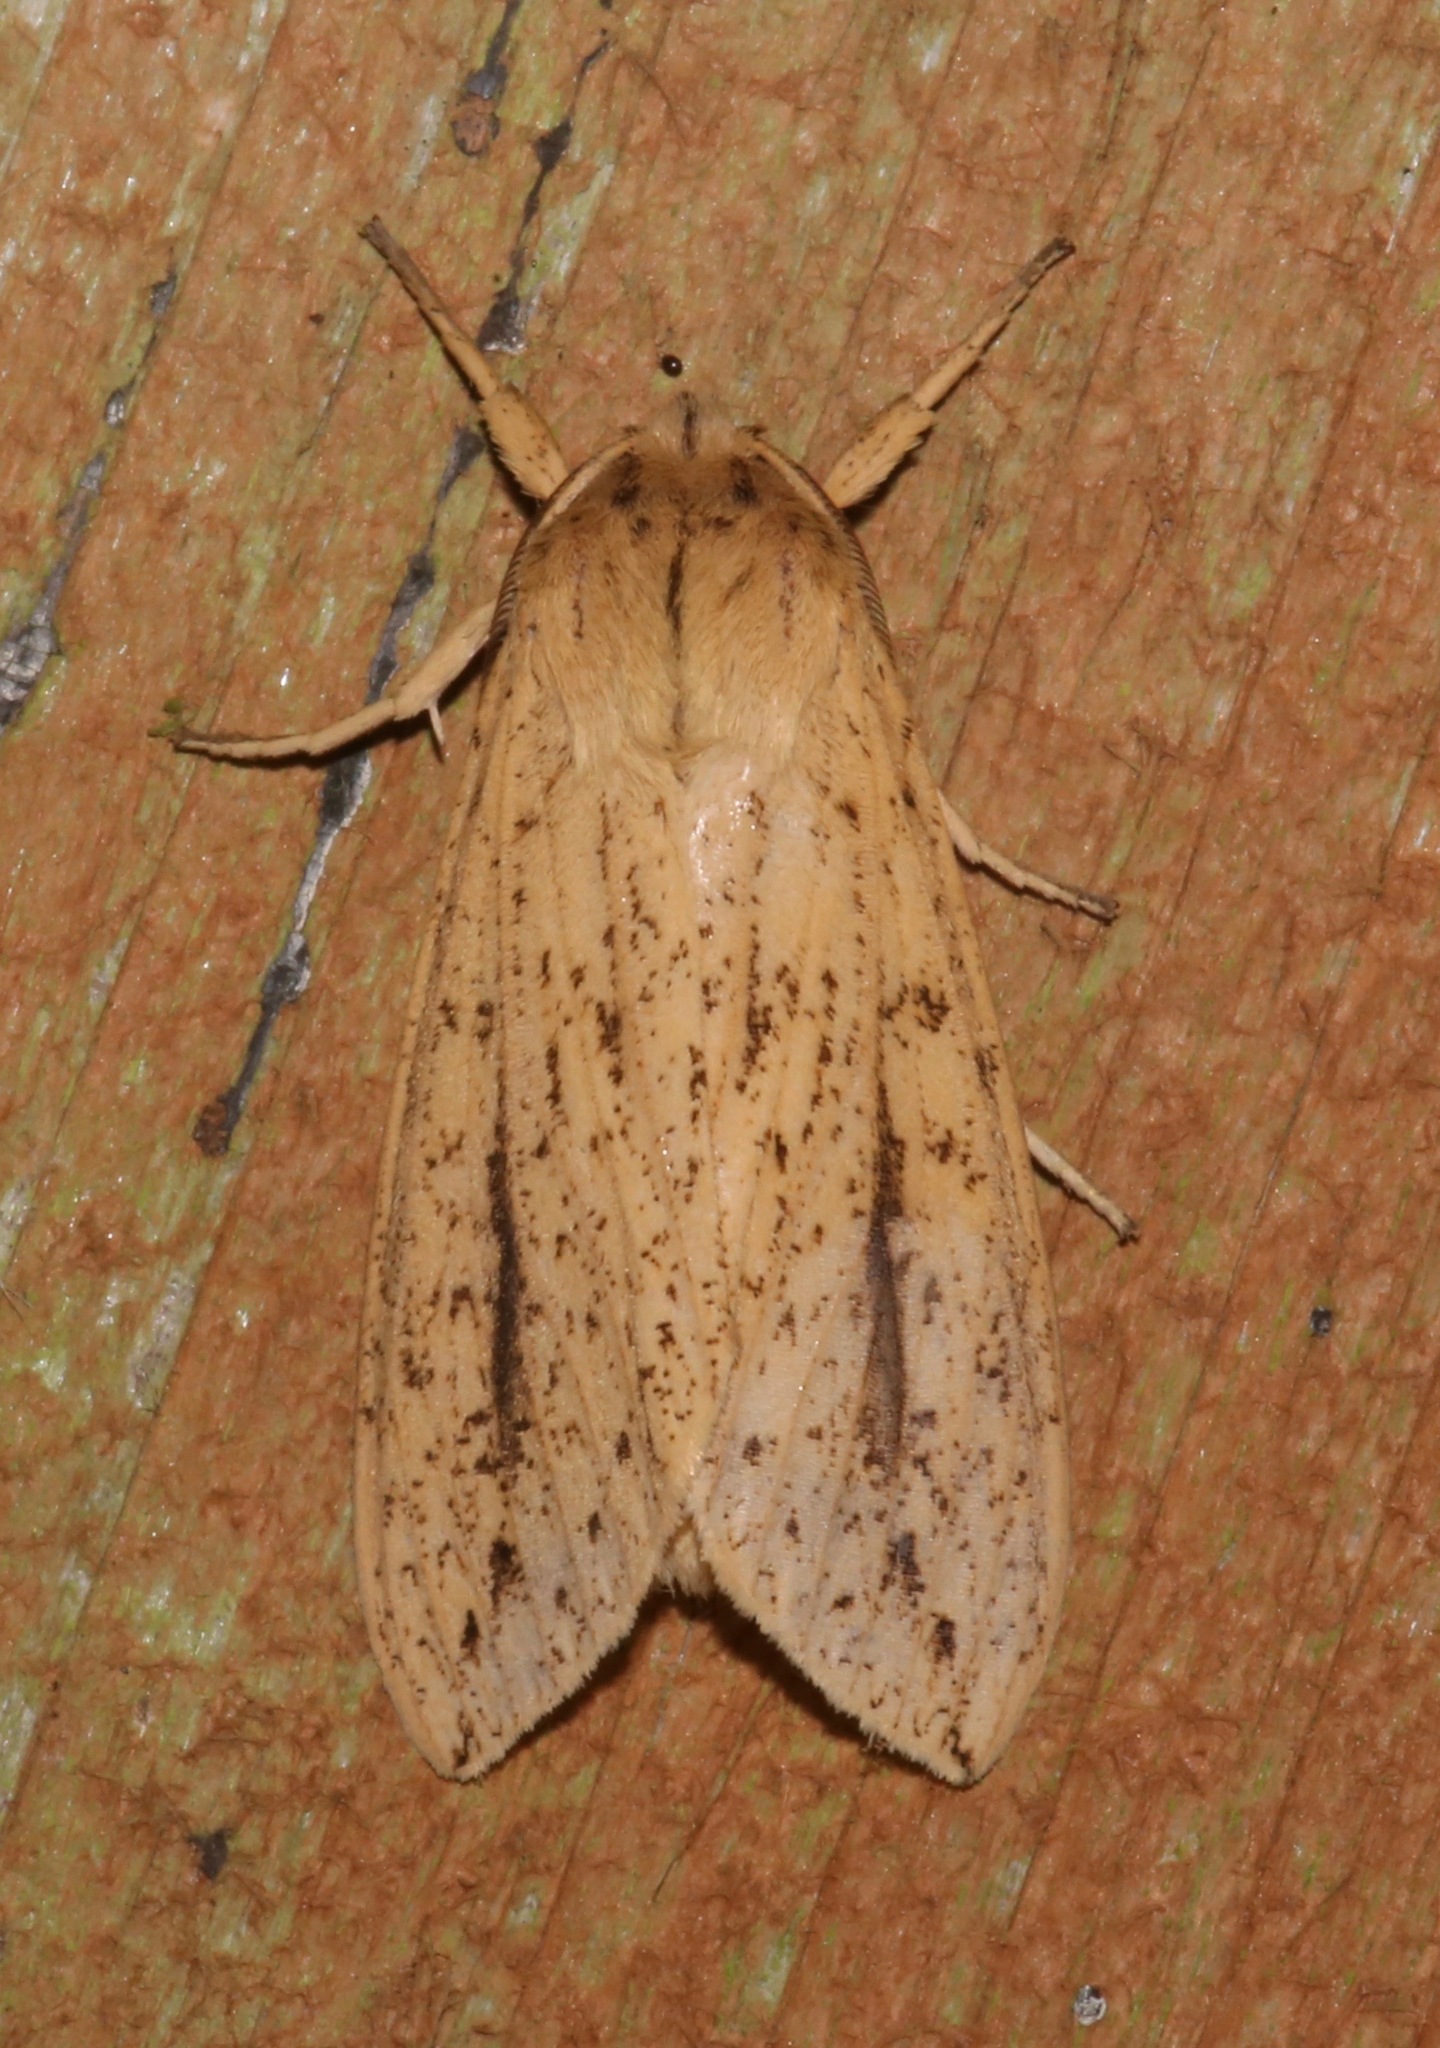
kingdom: Animalia
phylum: Arthropoda
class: Insecta
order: Lepidoptera
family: Erebidae
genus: Leucanopsis
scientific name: Leucanopsis longa
